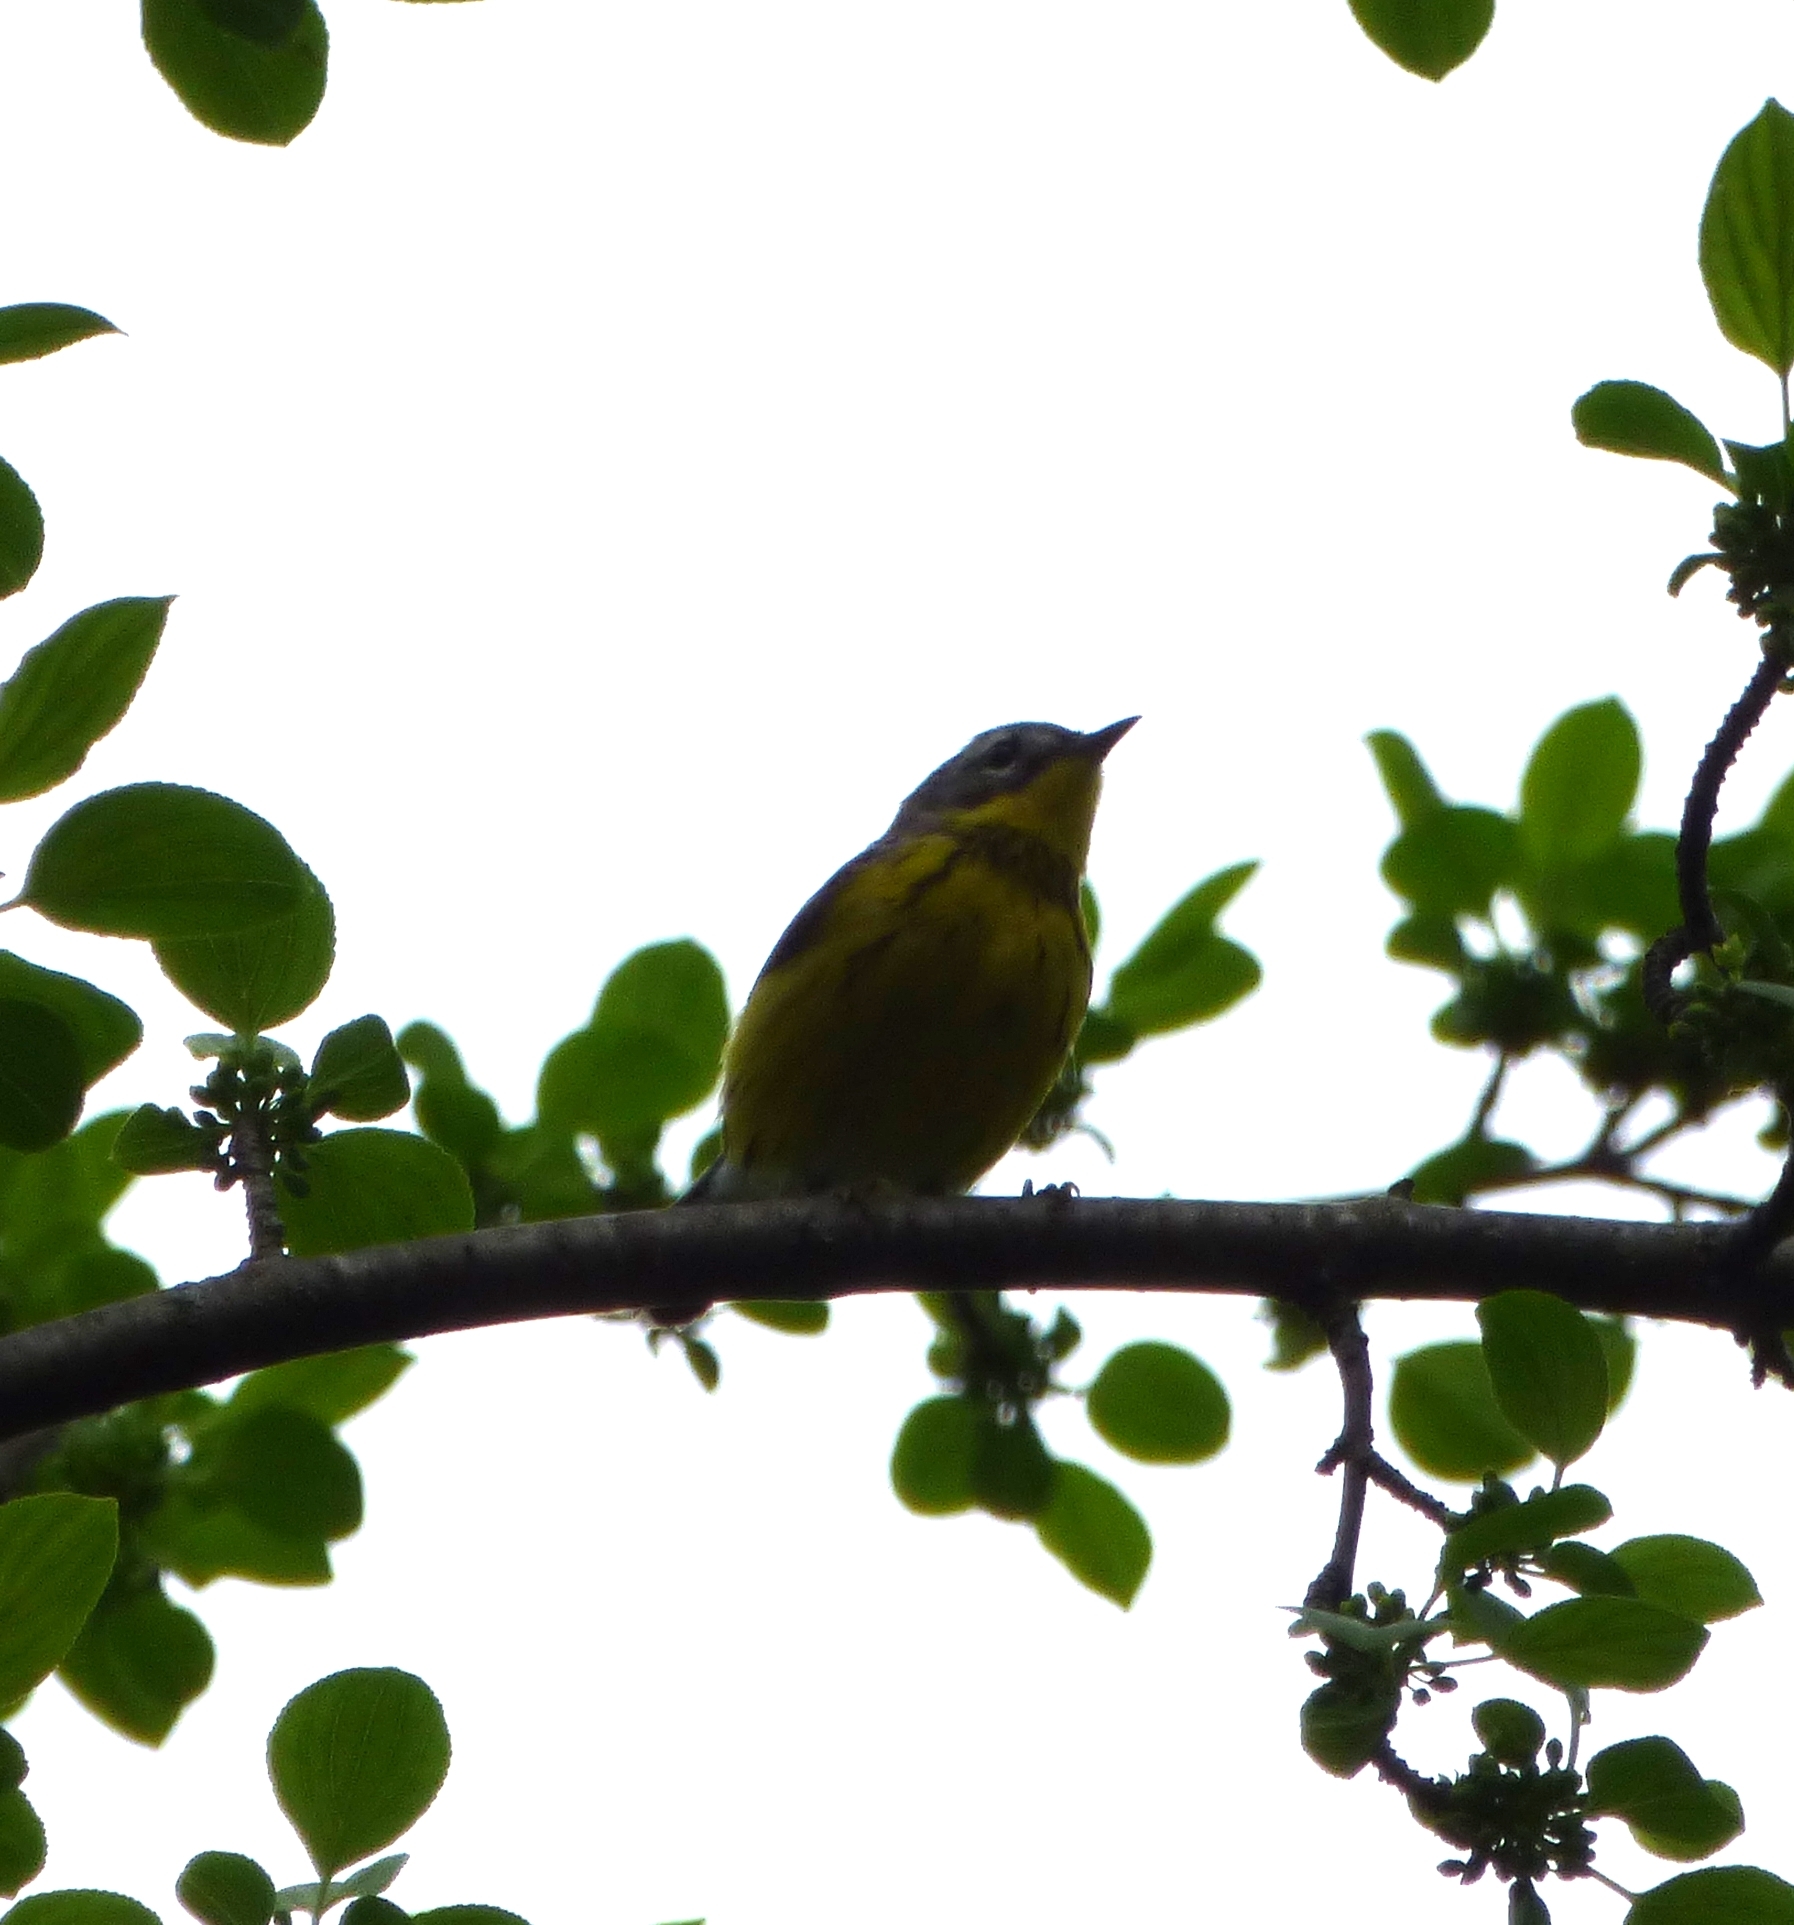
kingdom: Animalia
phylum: Chordata
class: Aves
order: Passeriformes
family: Parulidae
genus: Setophaga
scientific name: Setophaga magnolia
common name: Magnolia warbler
